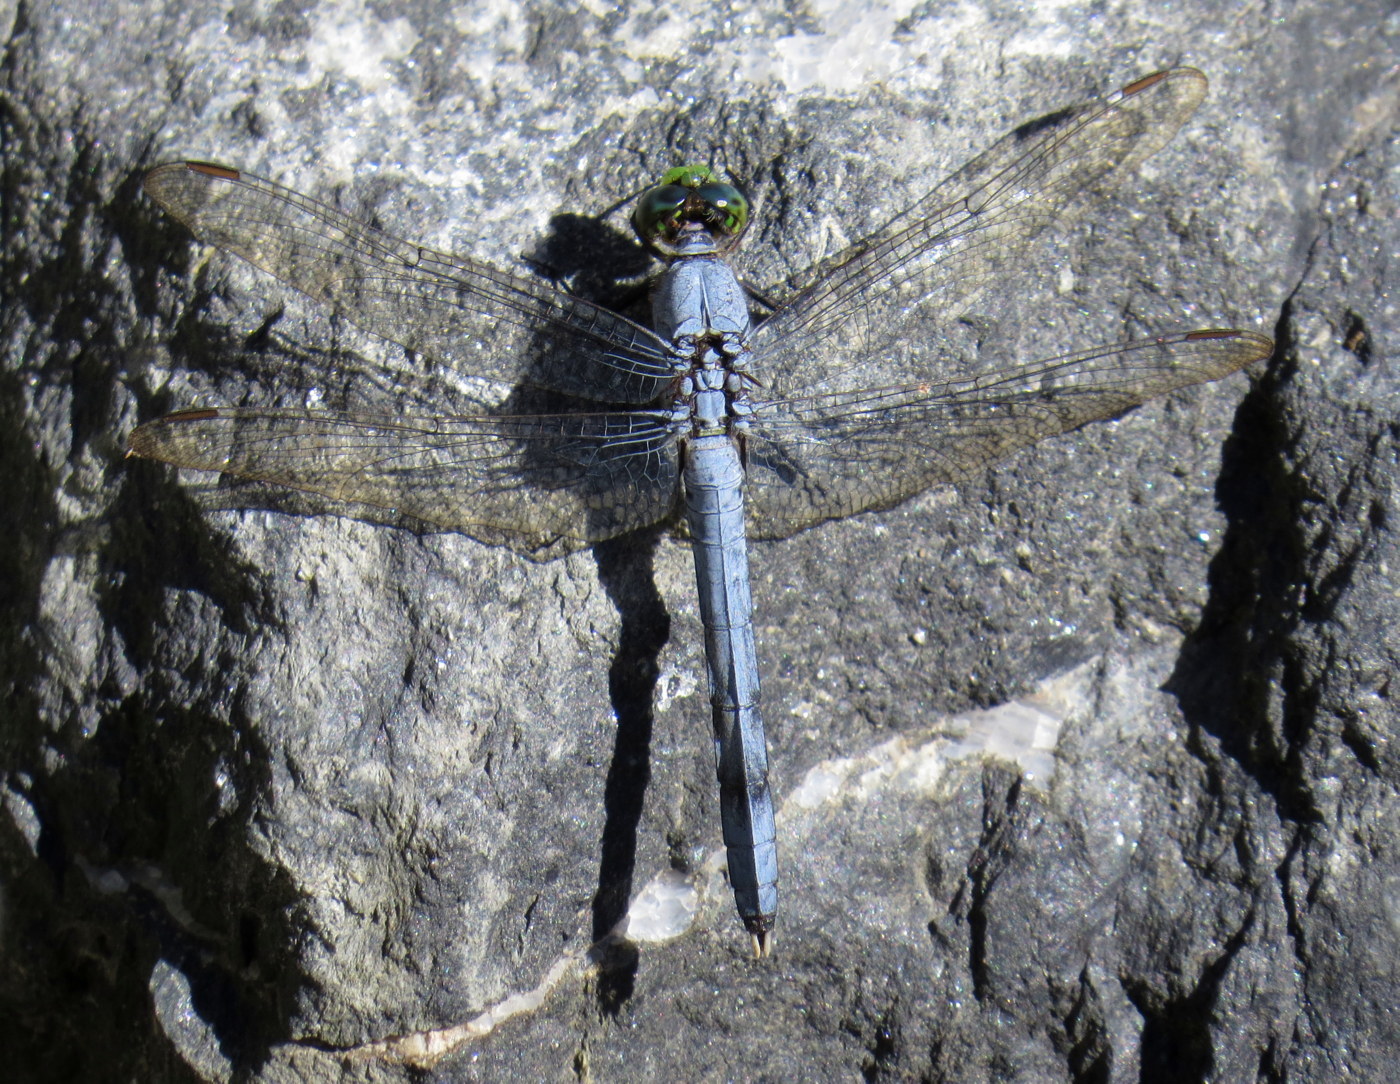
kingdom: Animalia
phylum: Arthropoda
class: Insecta
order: Odonata
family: Libellulidae
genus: Erythemis
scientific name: Erythemis simplicicollis
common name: Eastern pondhawk
